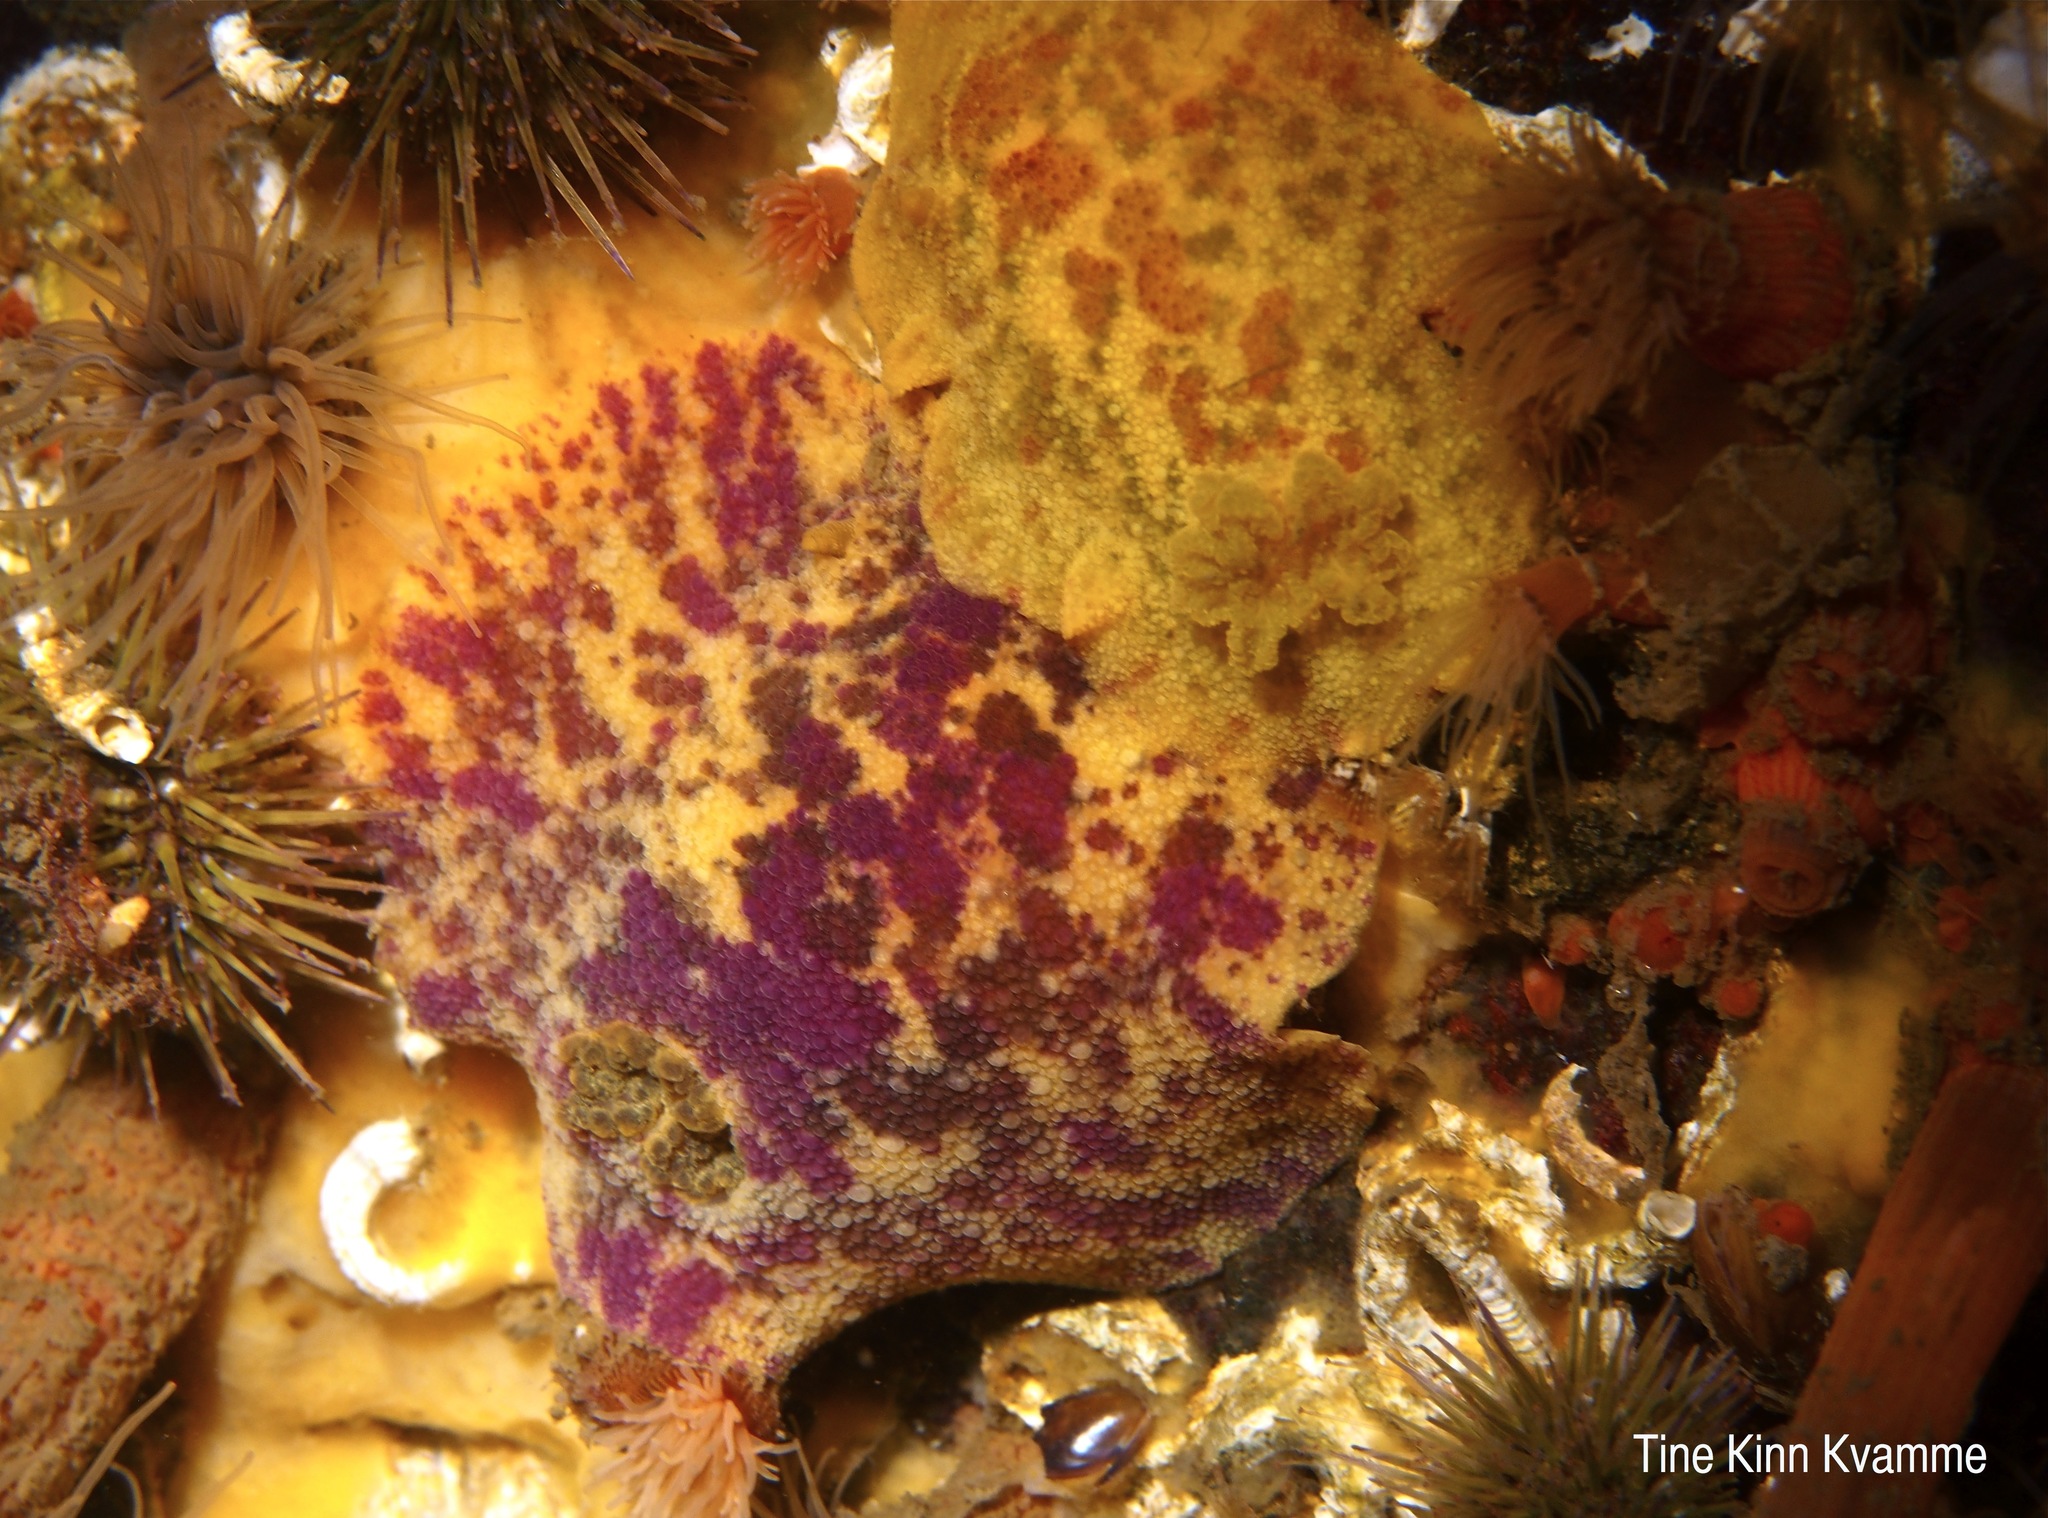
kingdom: Animalia
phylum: Mollusca
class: Gastropoda
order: Nudibranchia
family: Dorididae
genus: Doris
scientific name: Doris pseudoargus
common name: Sea lemon
